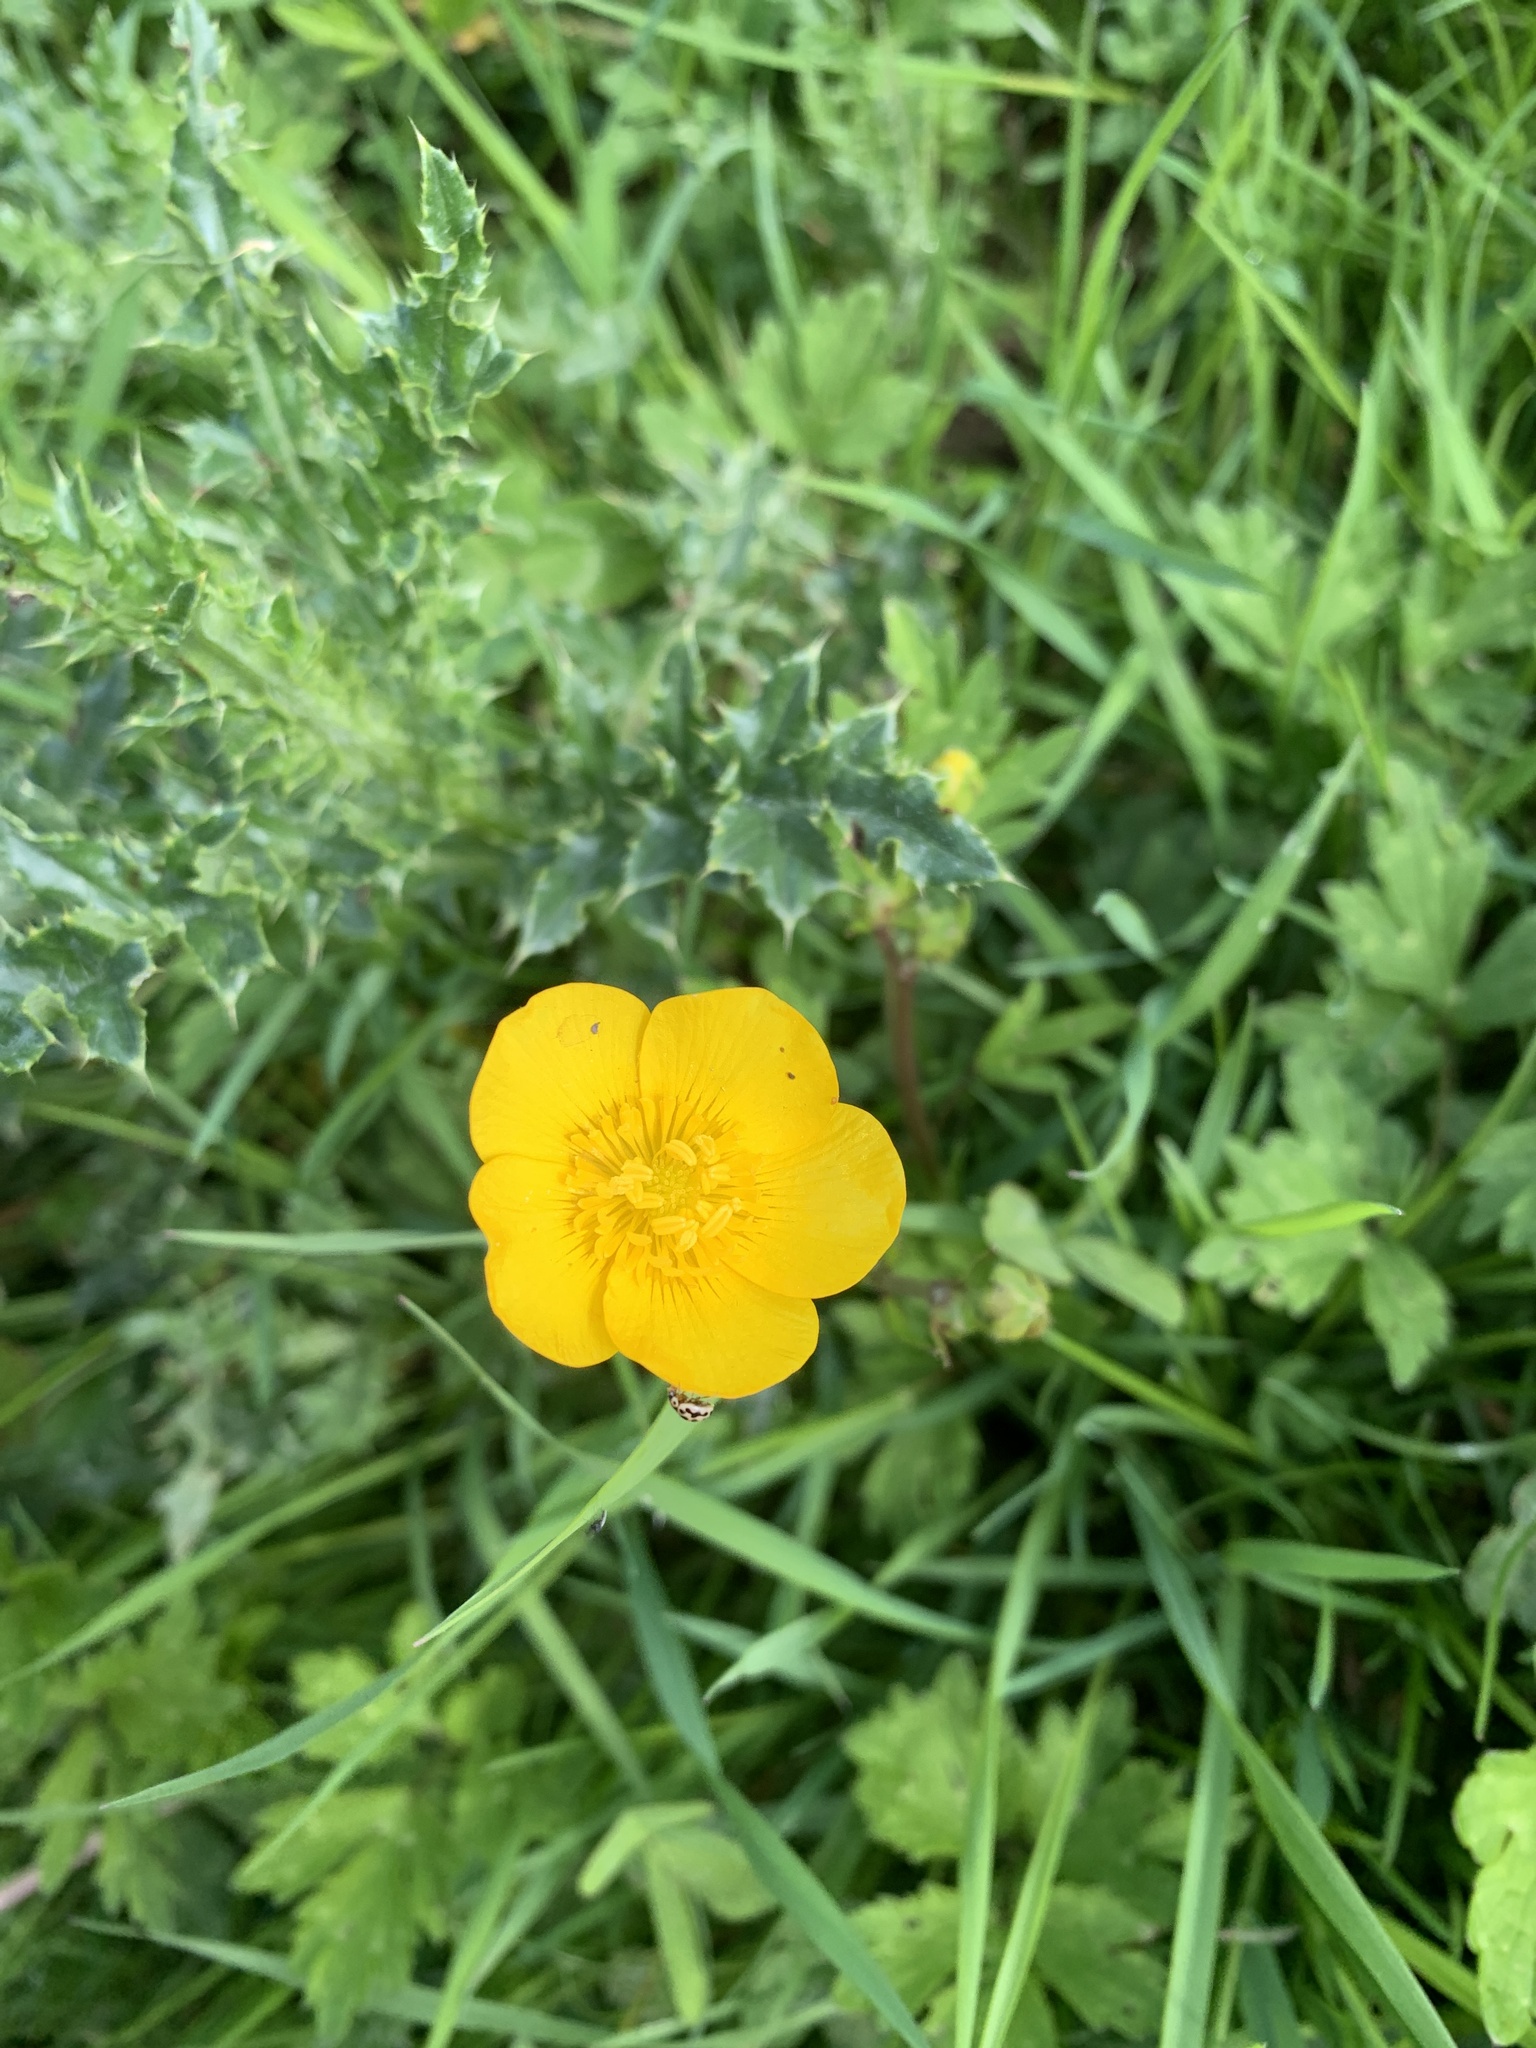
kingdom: Plantae
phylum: Tracheophyta
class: Magnoliopsida
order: Ranunculales
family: Ranunculaceae
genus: Ranunculus
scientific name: Ranunculus acris
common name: Meadow buttercup
